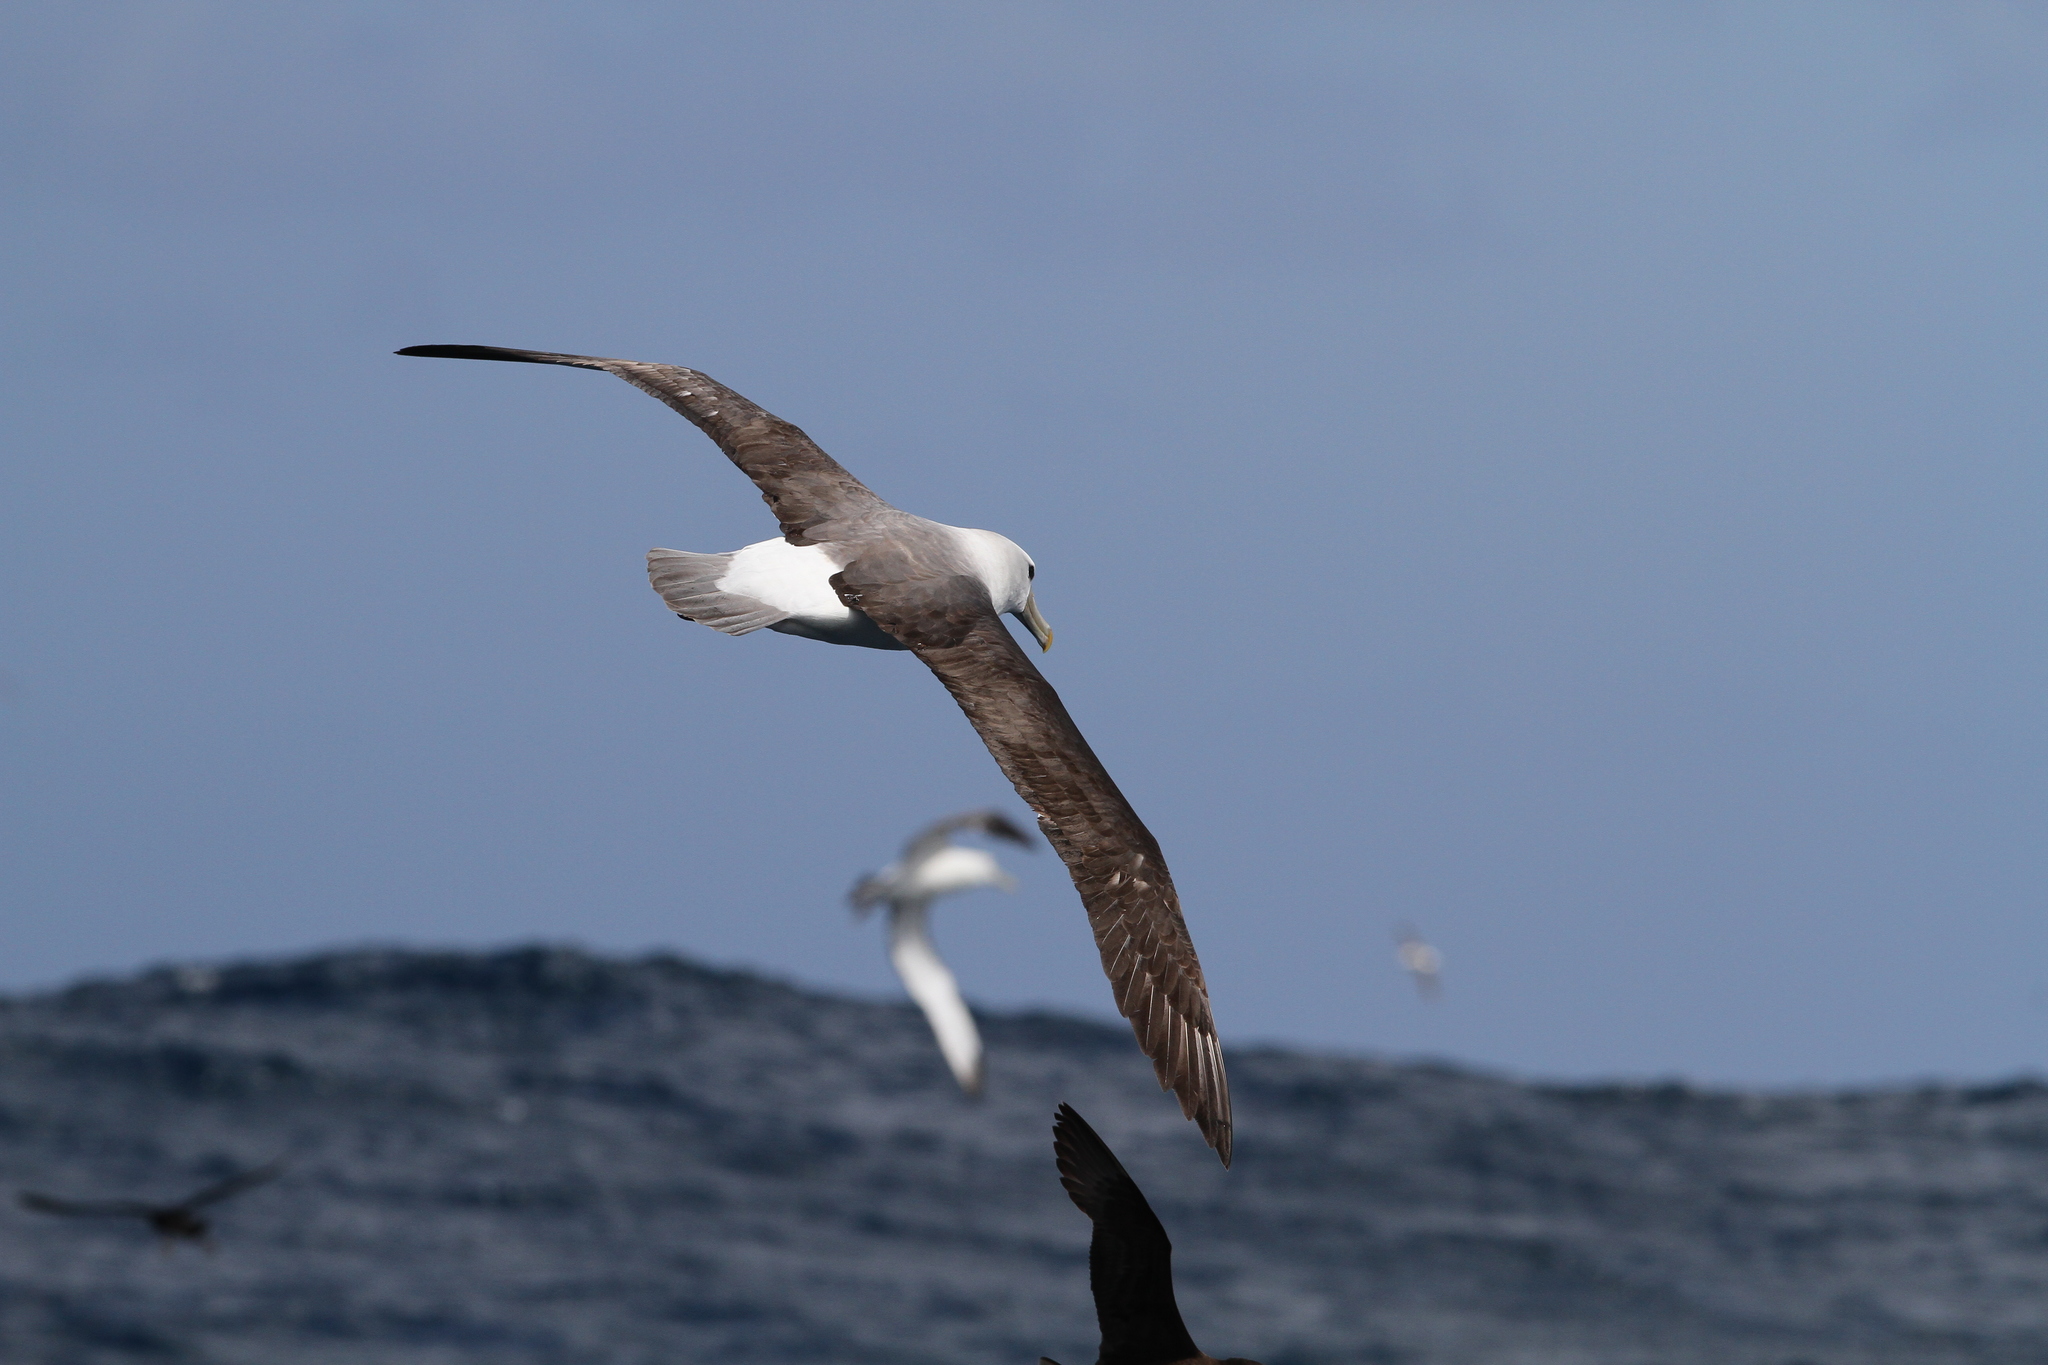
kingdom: Animalia
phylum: Chordata
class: Aves
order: Procellariiformes
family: Diomedeidae
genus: Thalassarche
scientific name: Thalassarche cauta
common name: Shy albatross
